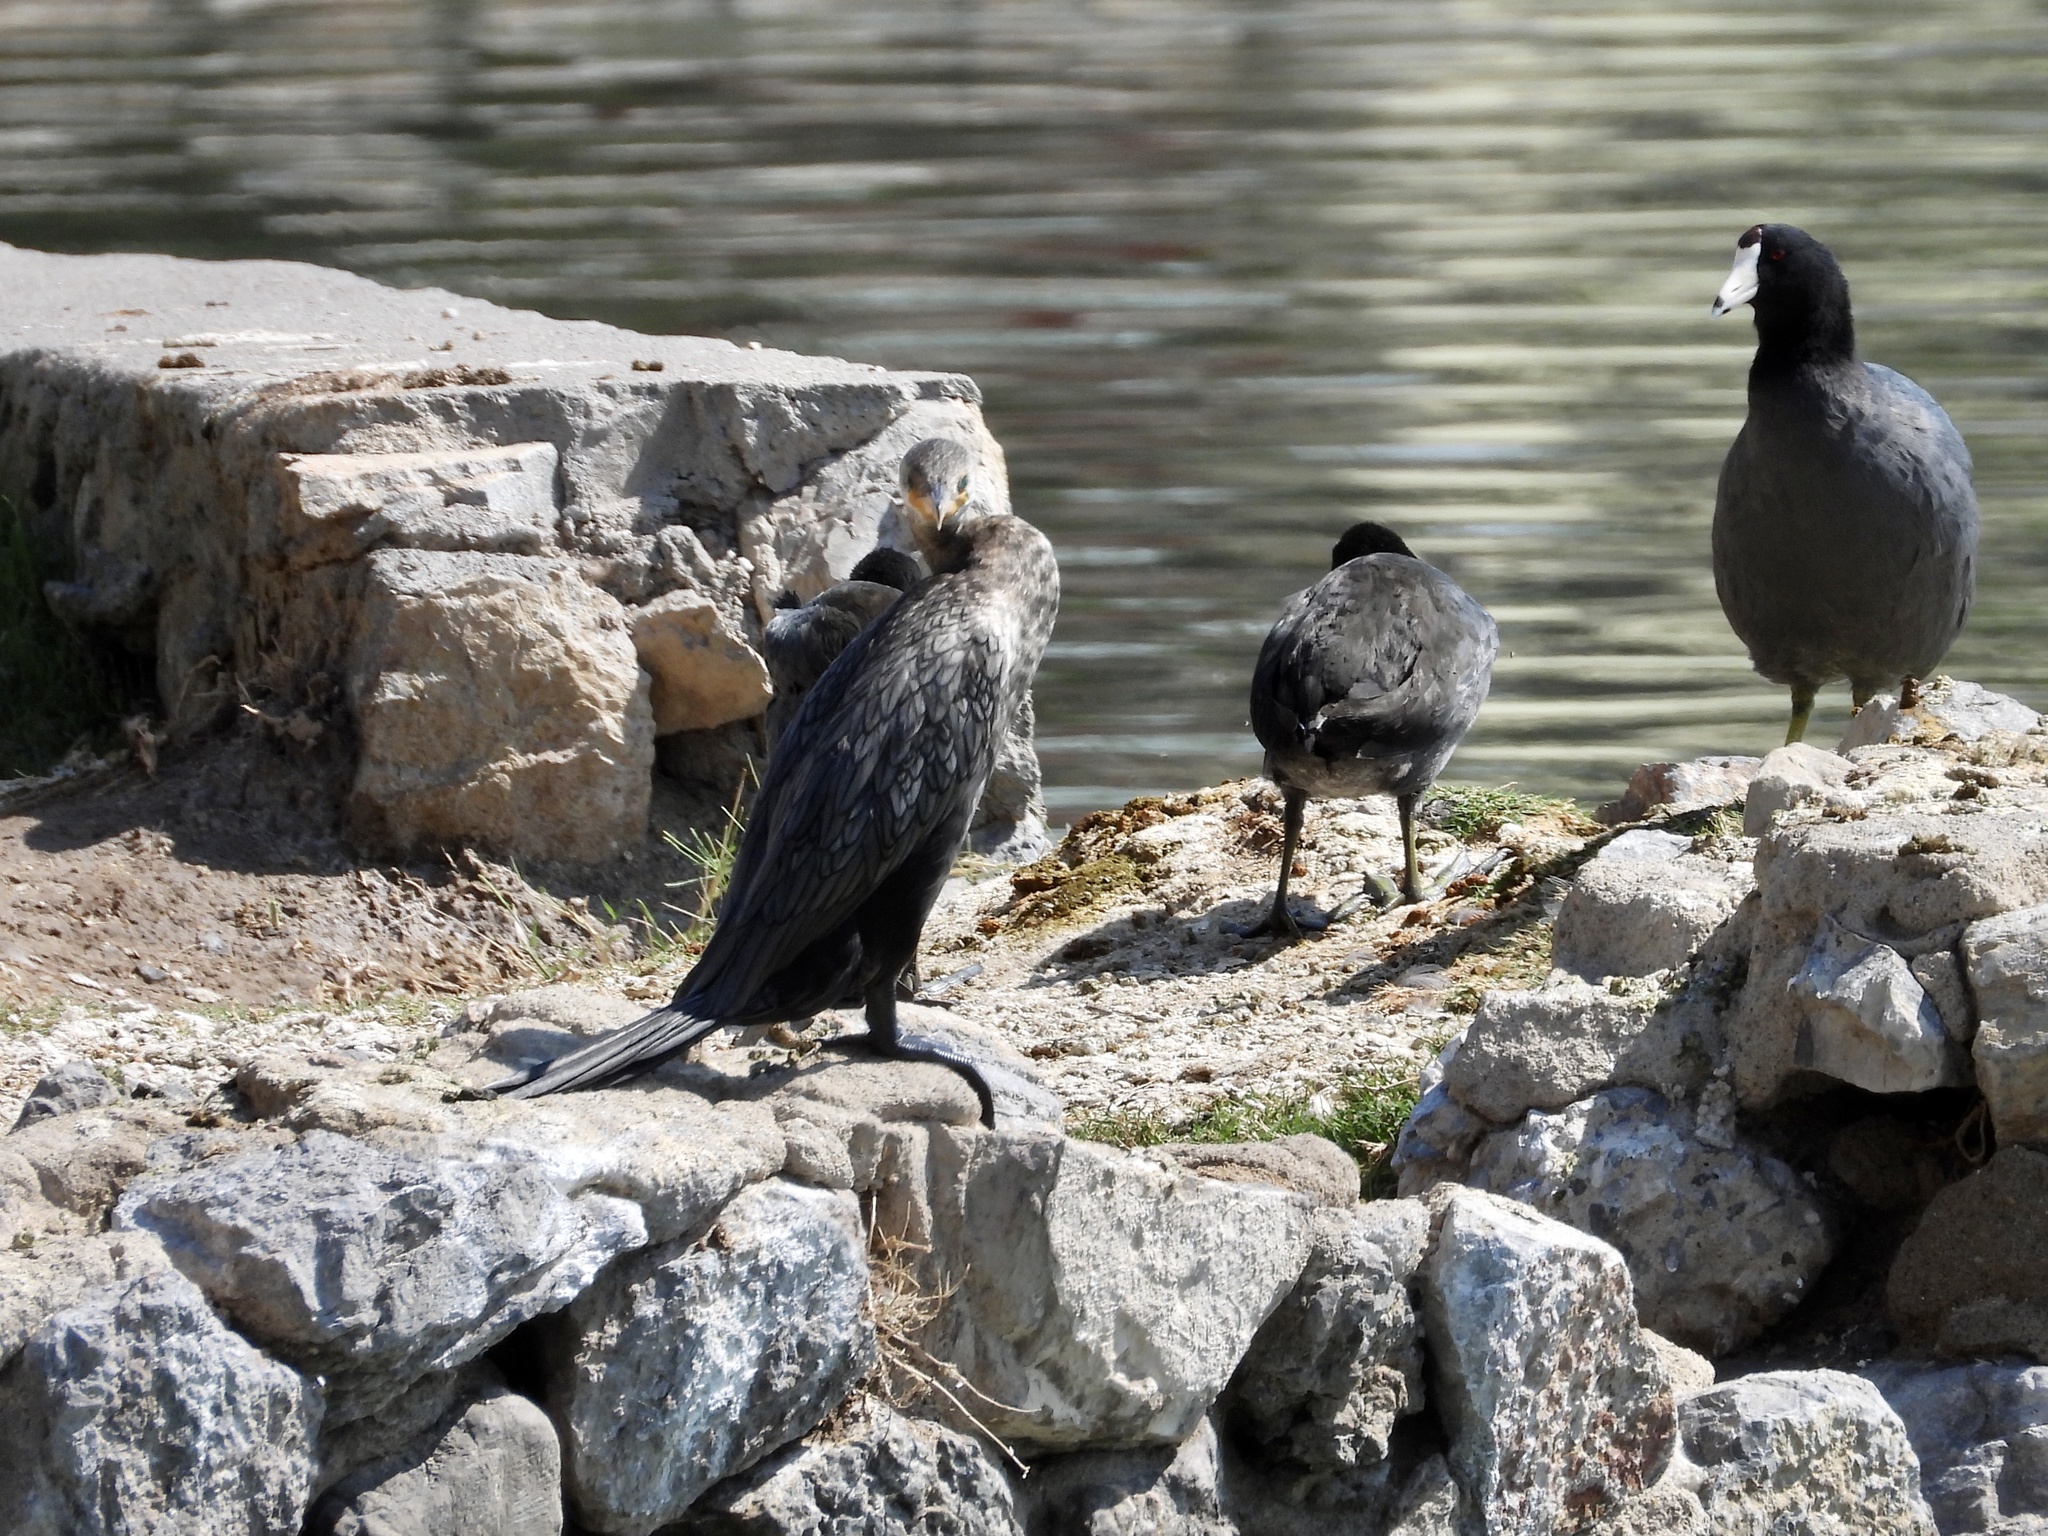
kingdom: Animalia
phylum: Chordata
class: Aves
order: Suliformes
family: Phalacrocoracidae
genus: Phalacrocorax
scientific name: Phalacrocorax brasilianus
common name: Neotropic cormorant
